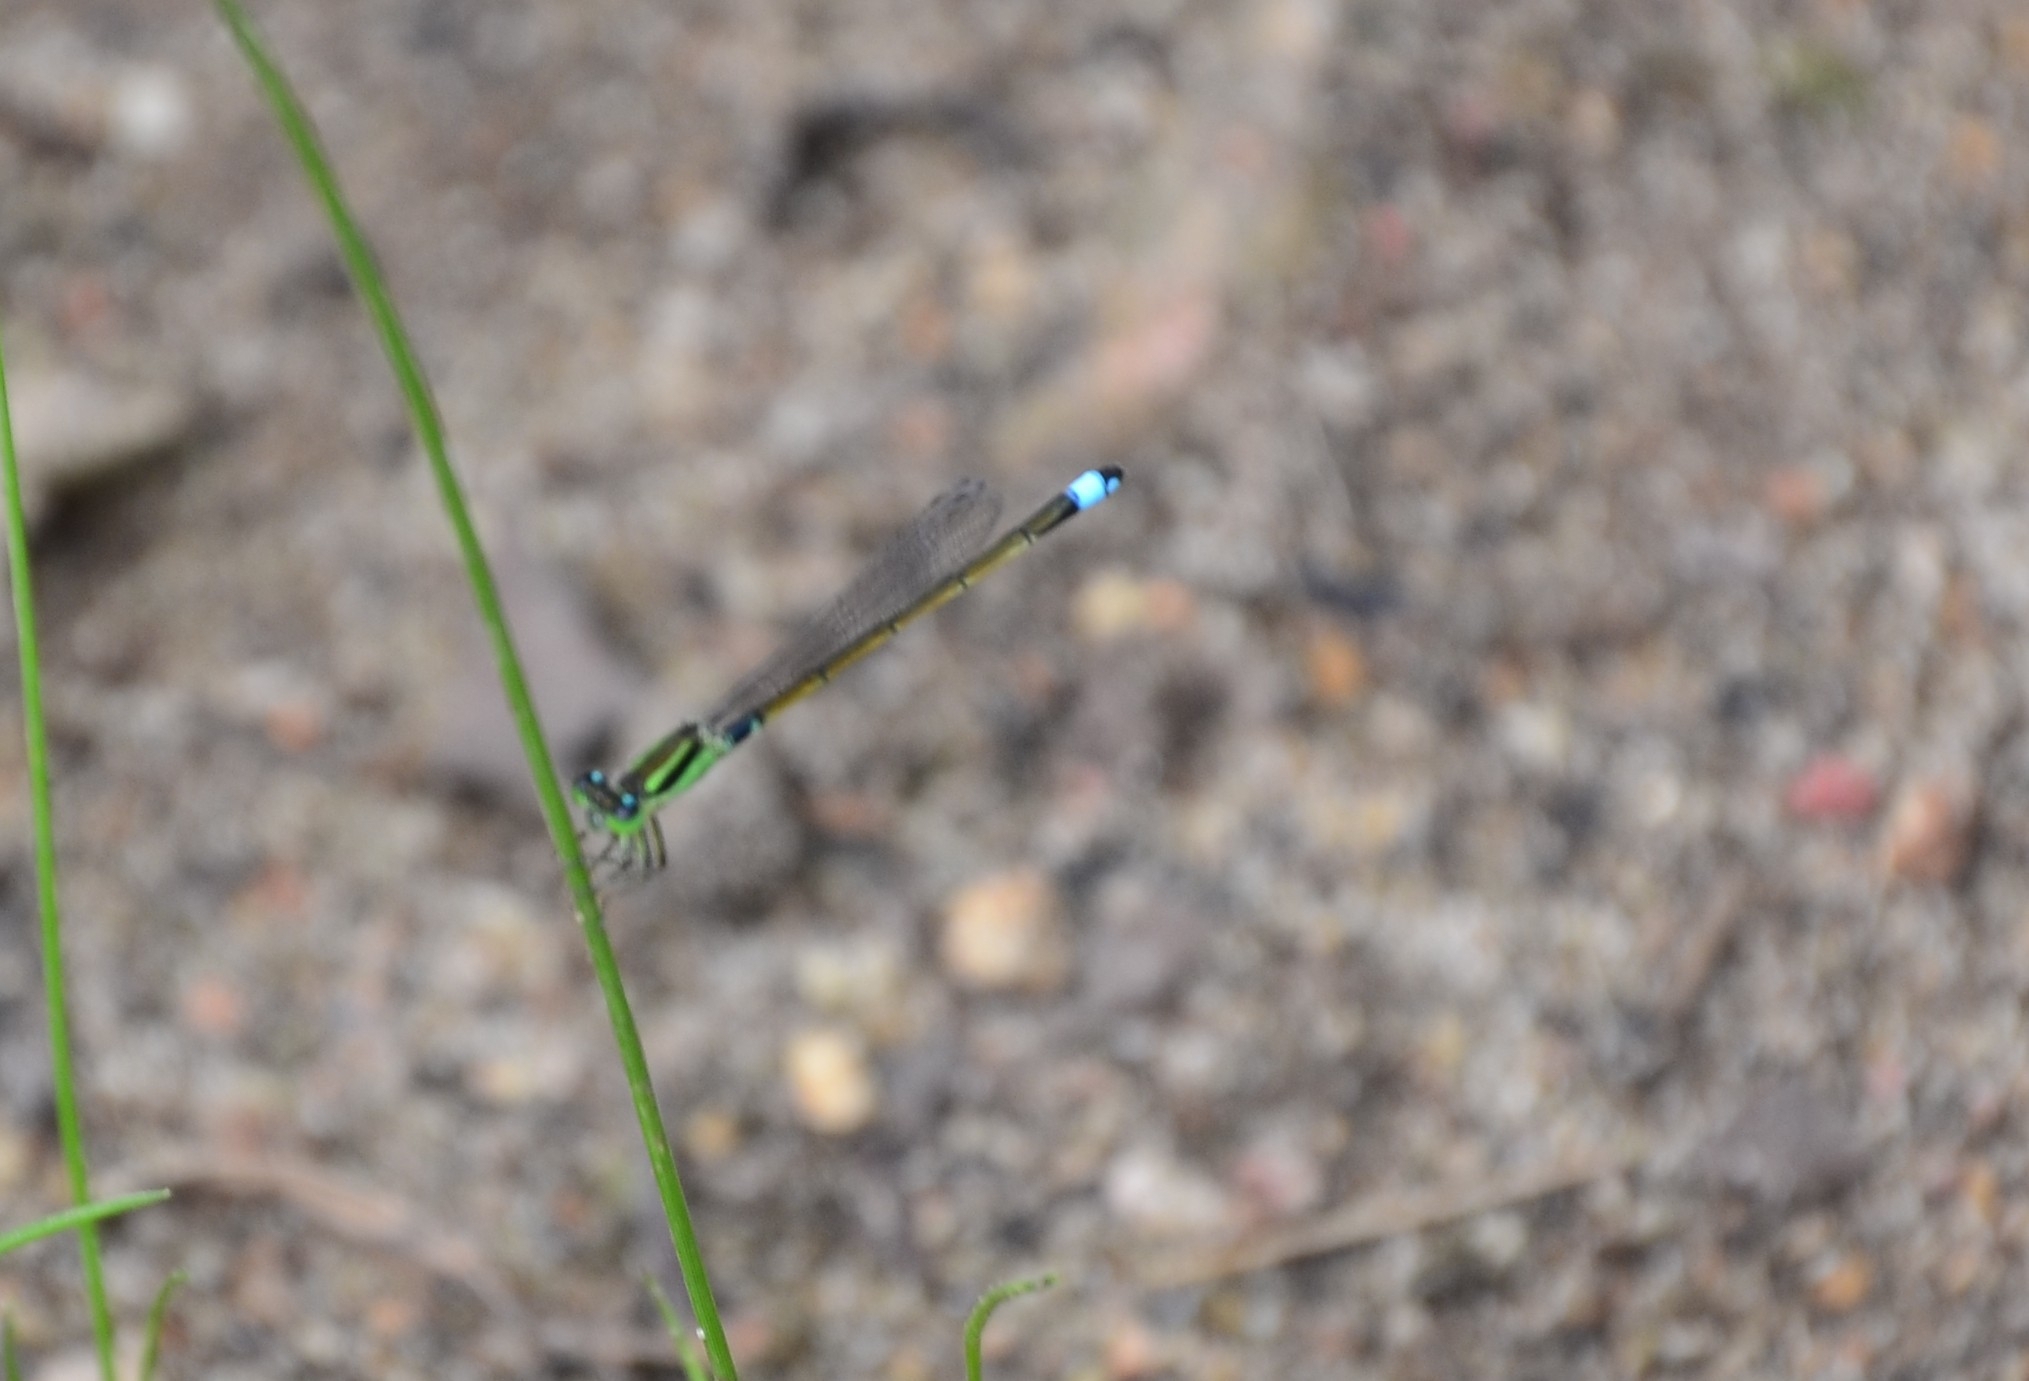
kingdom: Animalia
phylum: Arthropoda
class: Insecta
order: Odonata
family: Coenagrionidae
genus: Ischnura
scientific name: Ischnura senegalensis
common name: Tropical bluetail
